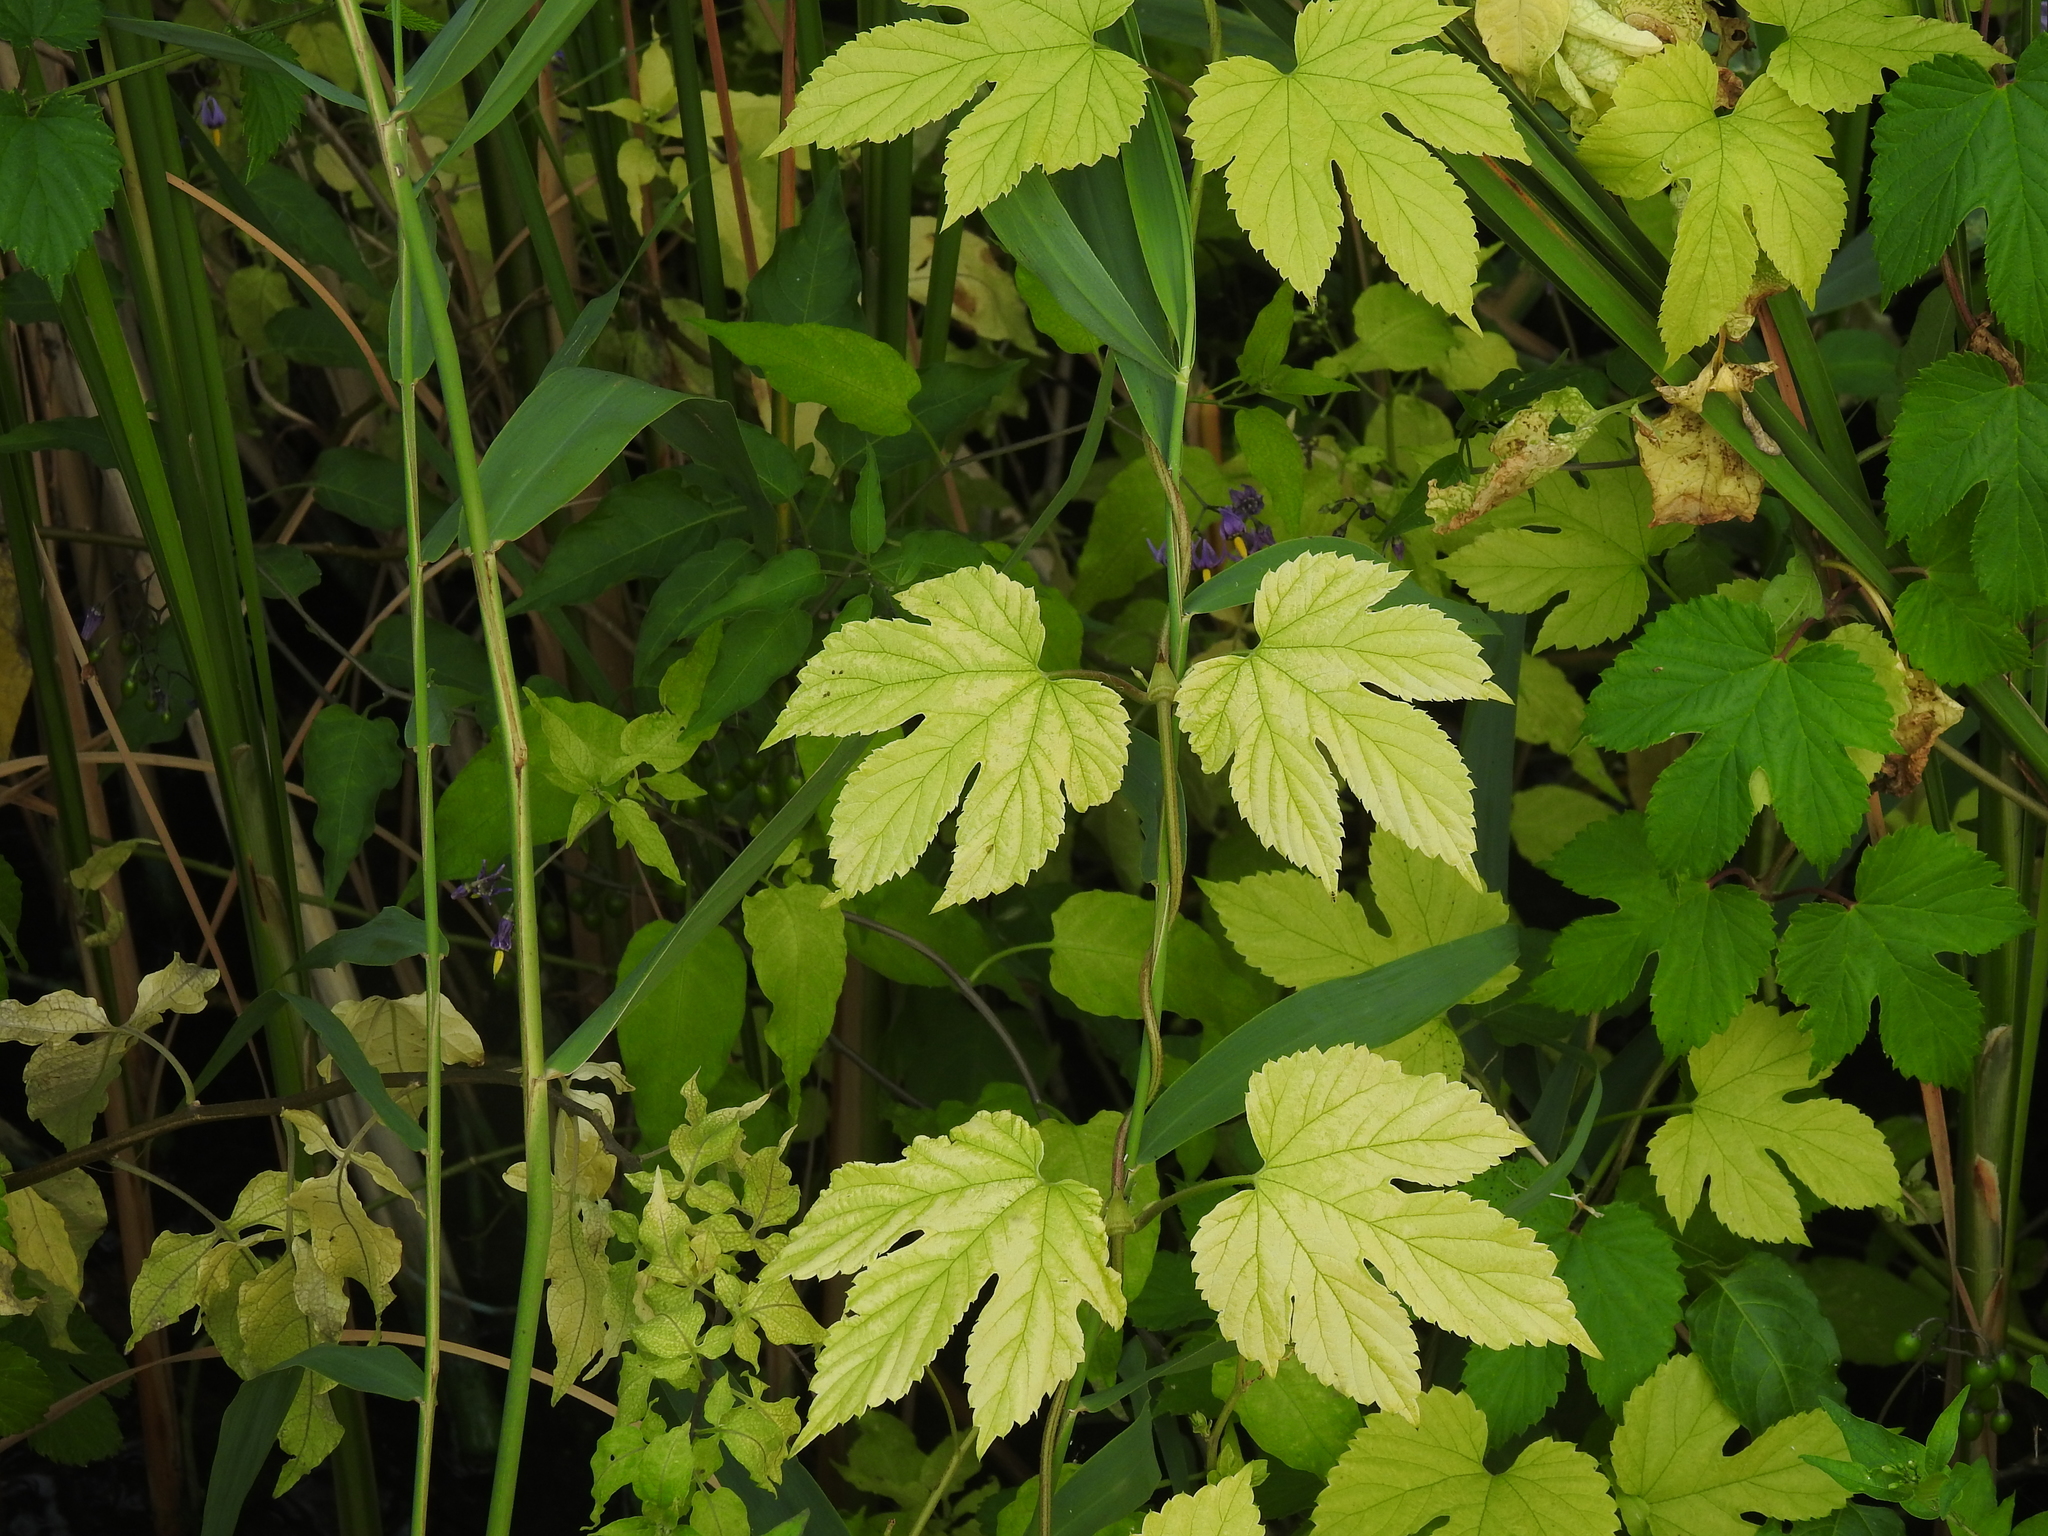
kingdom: Plantae
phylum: Tracheophyta
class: Magnoliopsida
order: Rosales
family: Cannabaceae
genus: Humulus
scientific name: Humulus lupulus
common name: Hop
